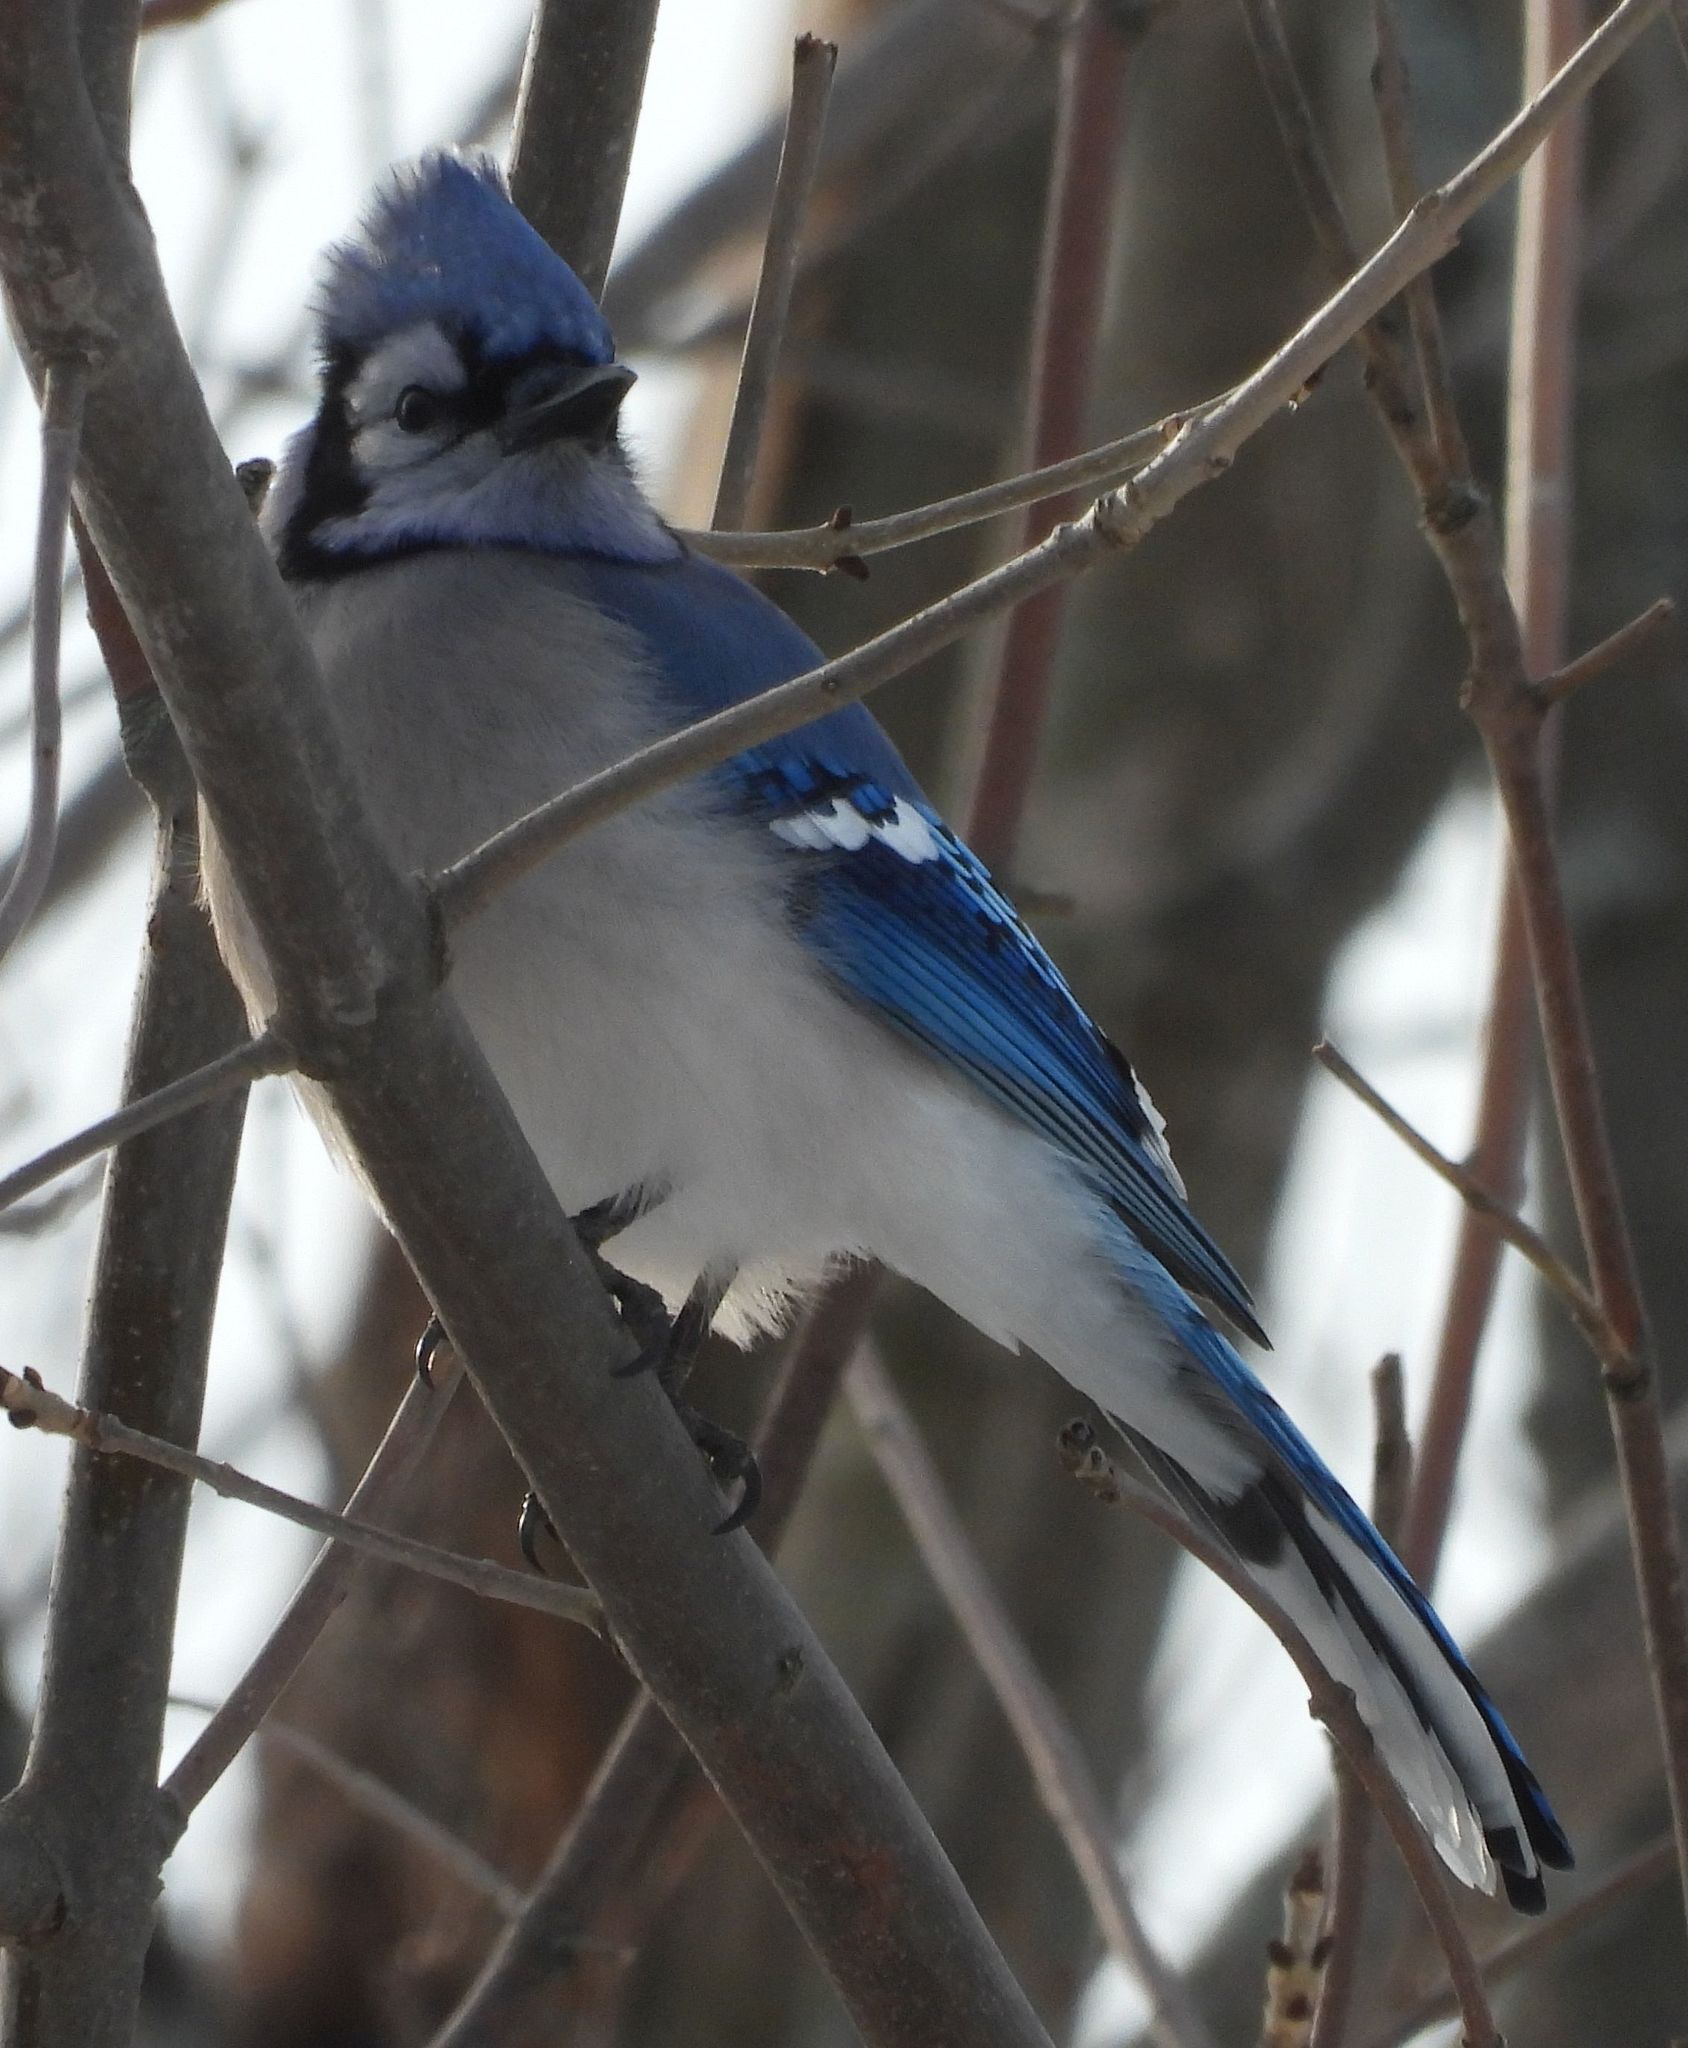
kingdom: Animalia
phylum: Chordata
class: Aves
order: Passeriformes
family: Corvidae
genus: Cyanocitta
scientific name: Cyanocitta cristata
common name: Blue jay
